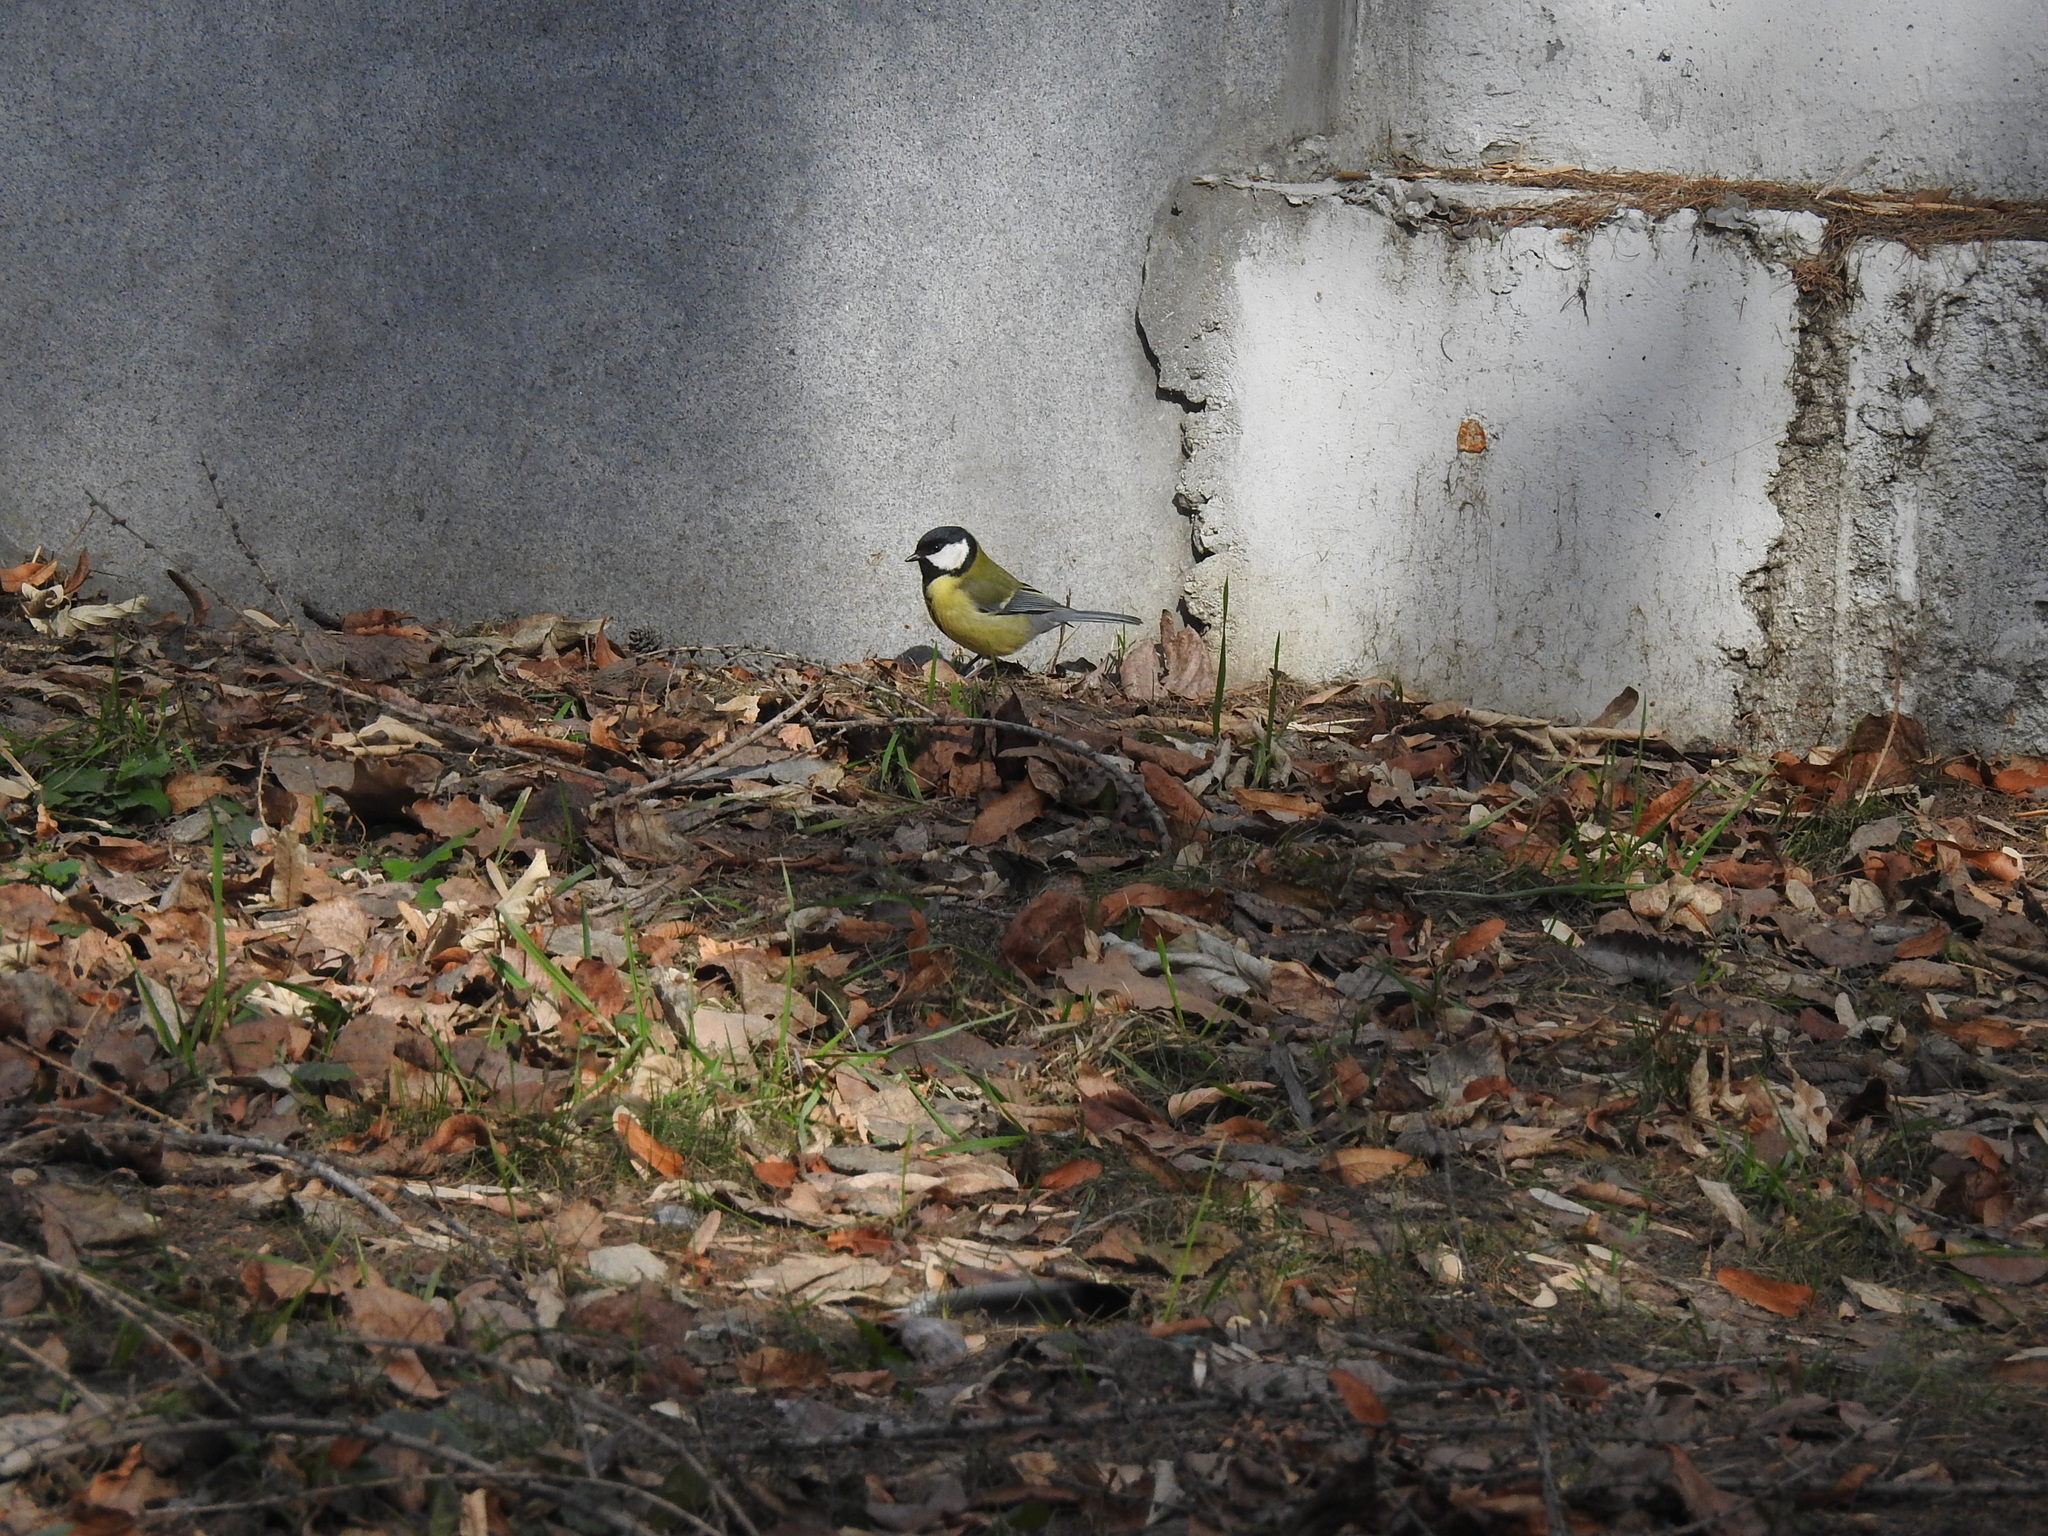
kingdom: Animalia
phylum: Chordata
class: Aves
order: Passeriformes
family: Paridae
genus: Parus
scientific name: Parus major
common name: Great tit
